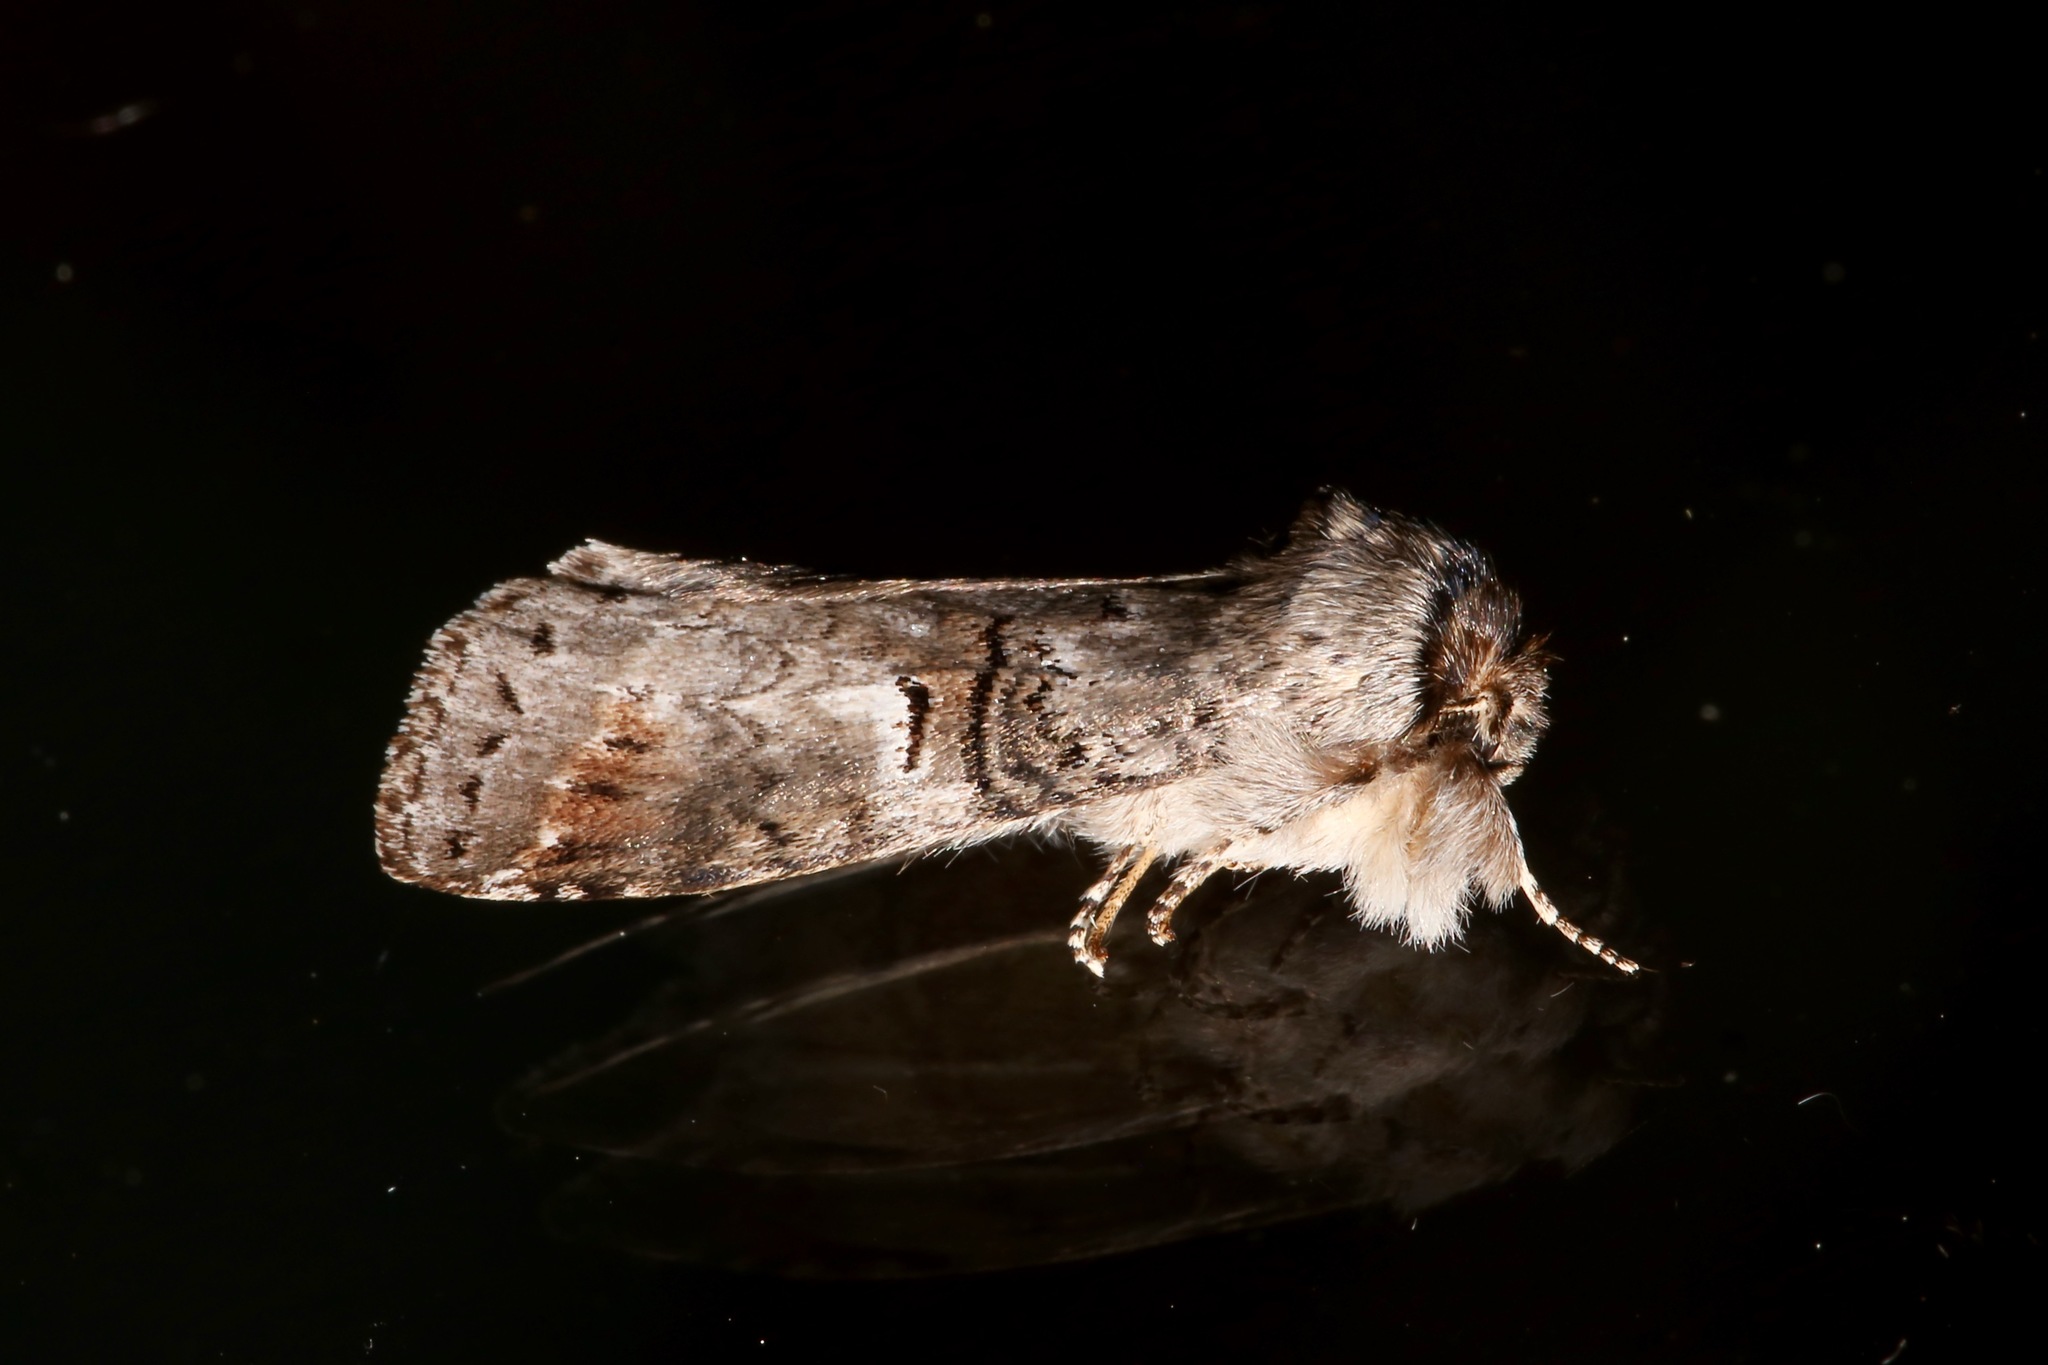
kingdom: Animalia
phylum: Arthropoda
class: Insecta
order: Lepidoptera
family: Notodontidae
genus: Ellida
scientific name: Ellida caniplaga
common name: Linden prominent
